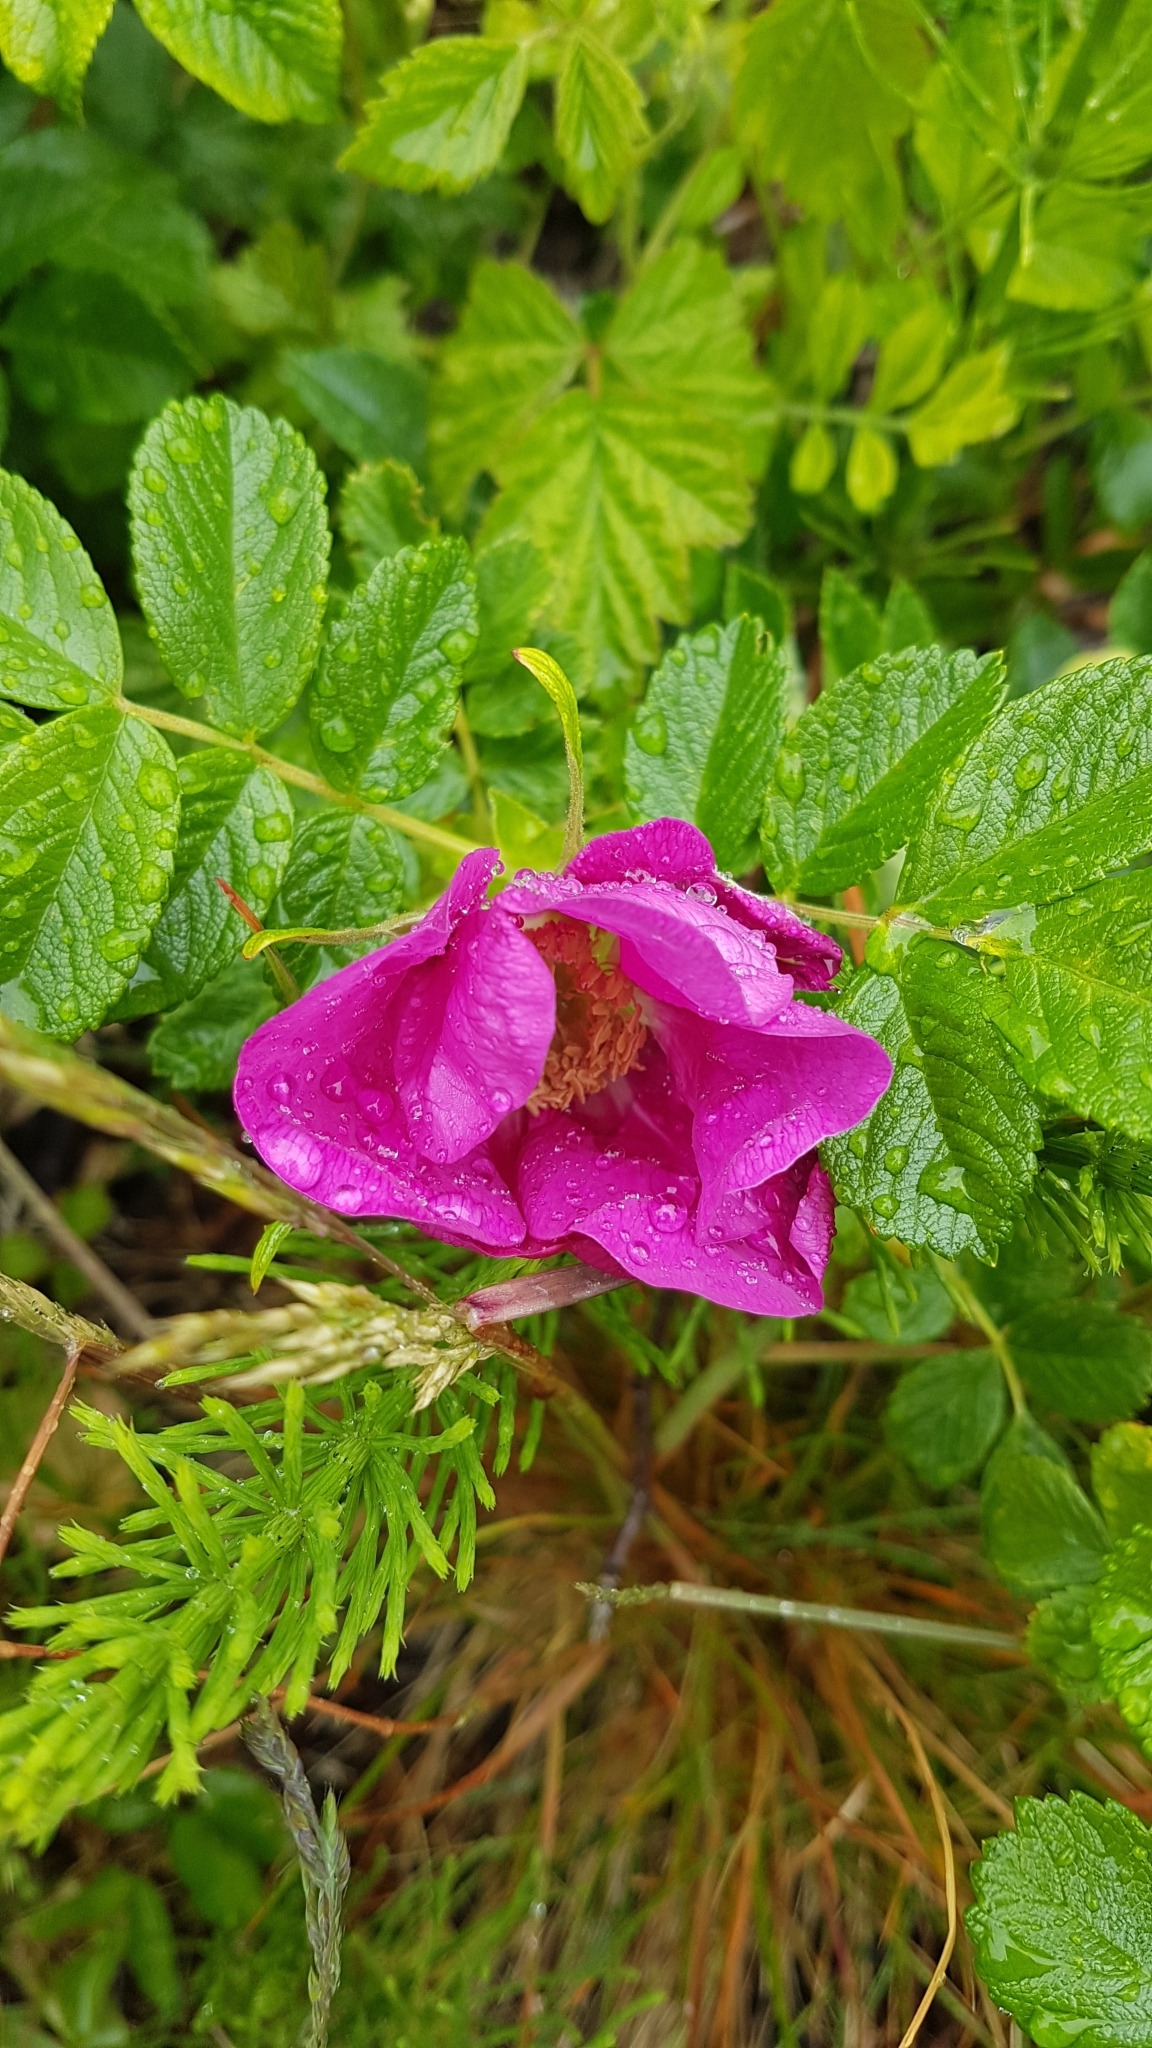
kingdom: Plantae
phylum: Tracheophyta
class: Magnoliopsida
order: Rosales
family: Rosaceae
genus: Rosa
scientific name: Rosa rugosa
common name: Japanese rose
